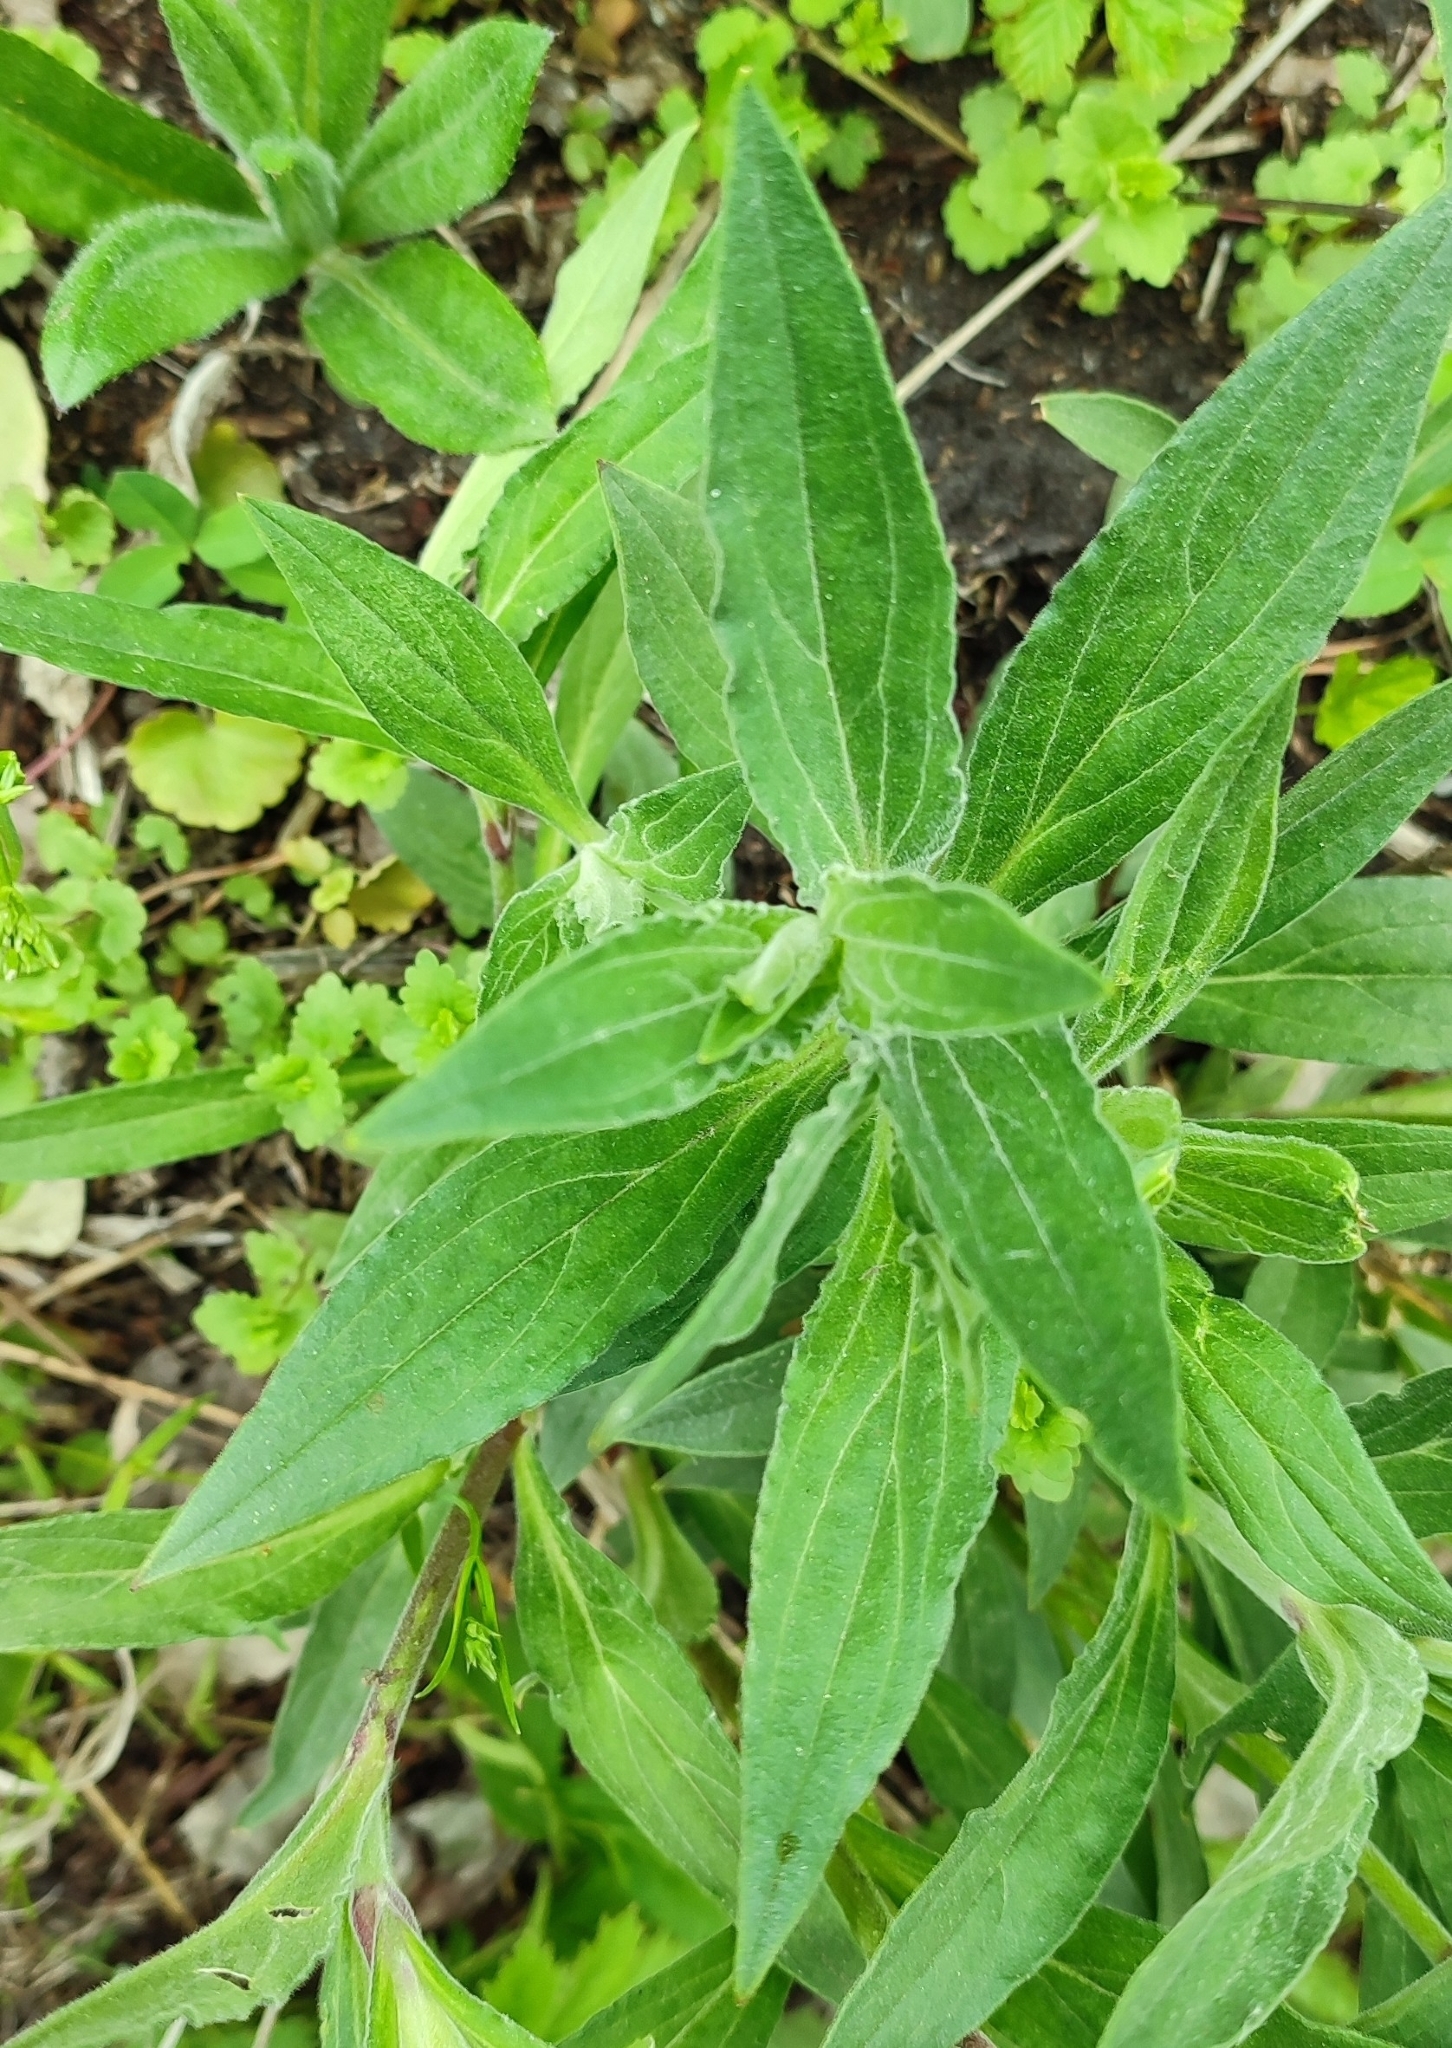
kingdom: Plantae
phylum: Tracheophyta
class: Magnoliopsida
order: Caryophyllales
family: Caryophyllaceae
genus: Silene
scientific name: Silene latifolia
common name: White campion
